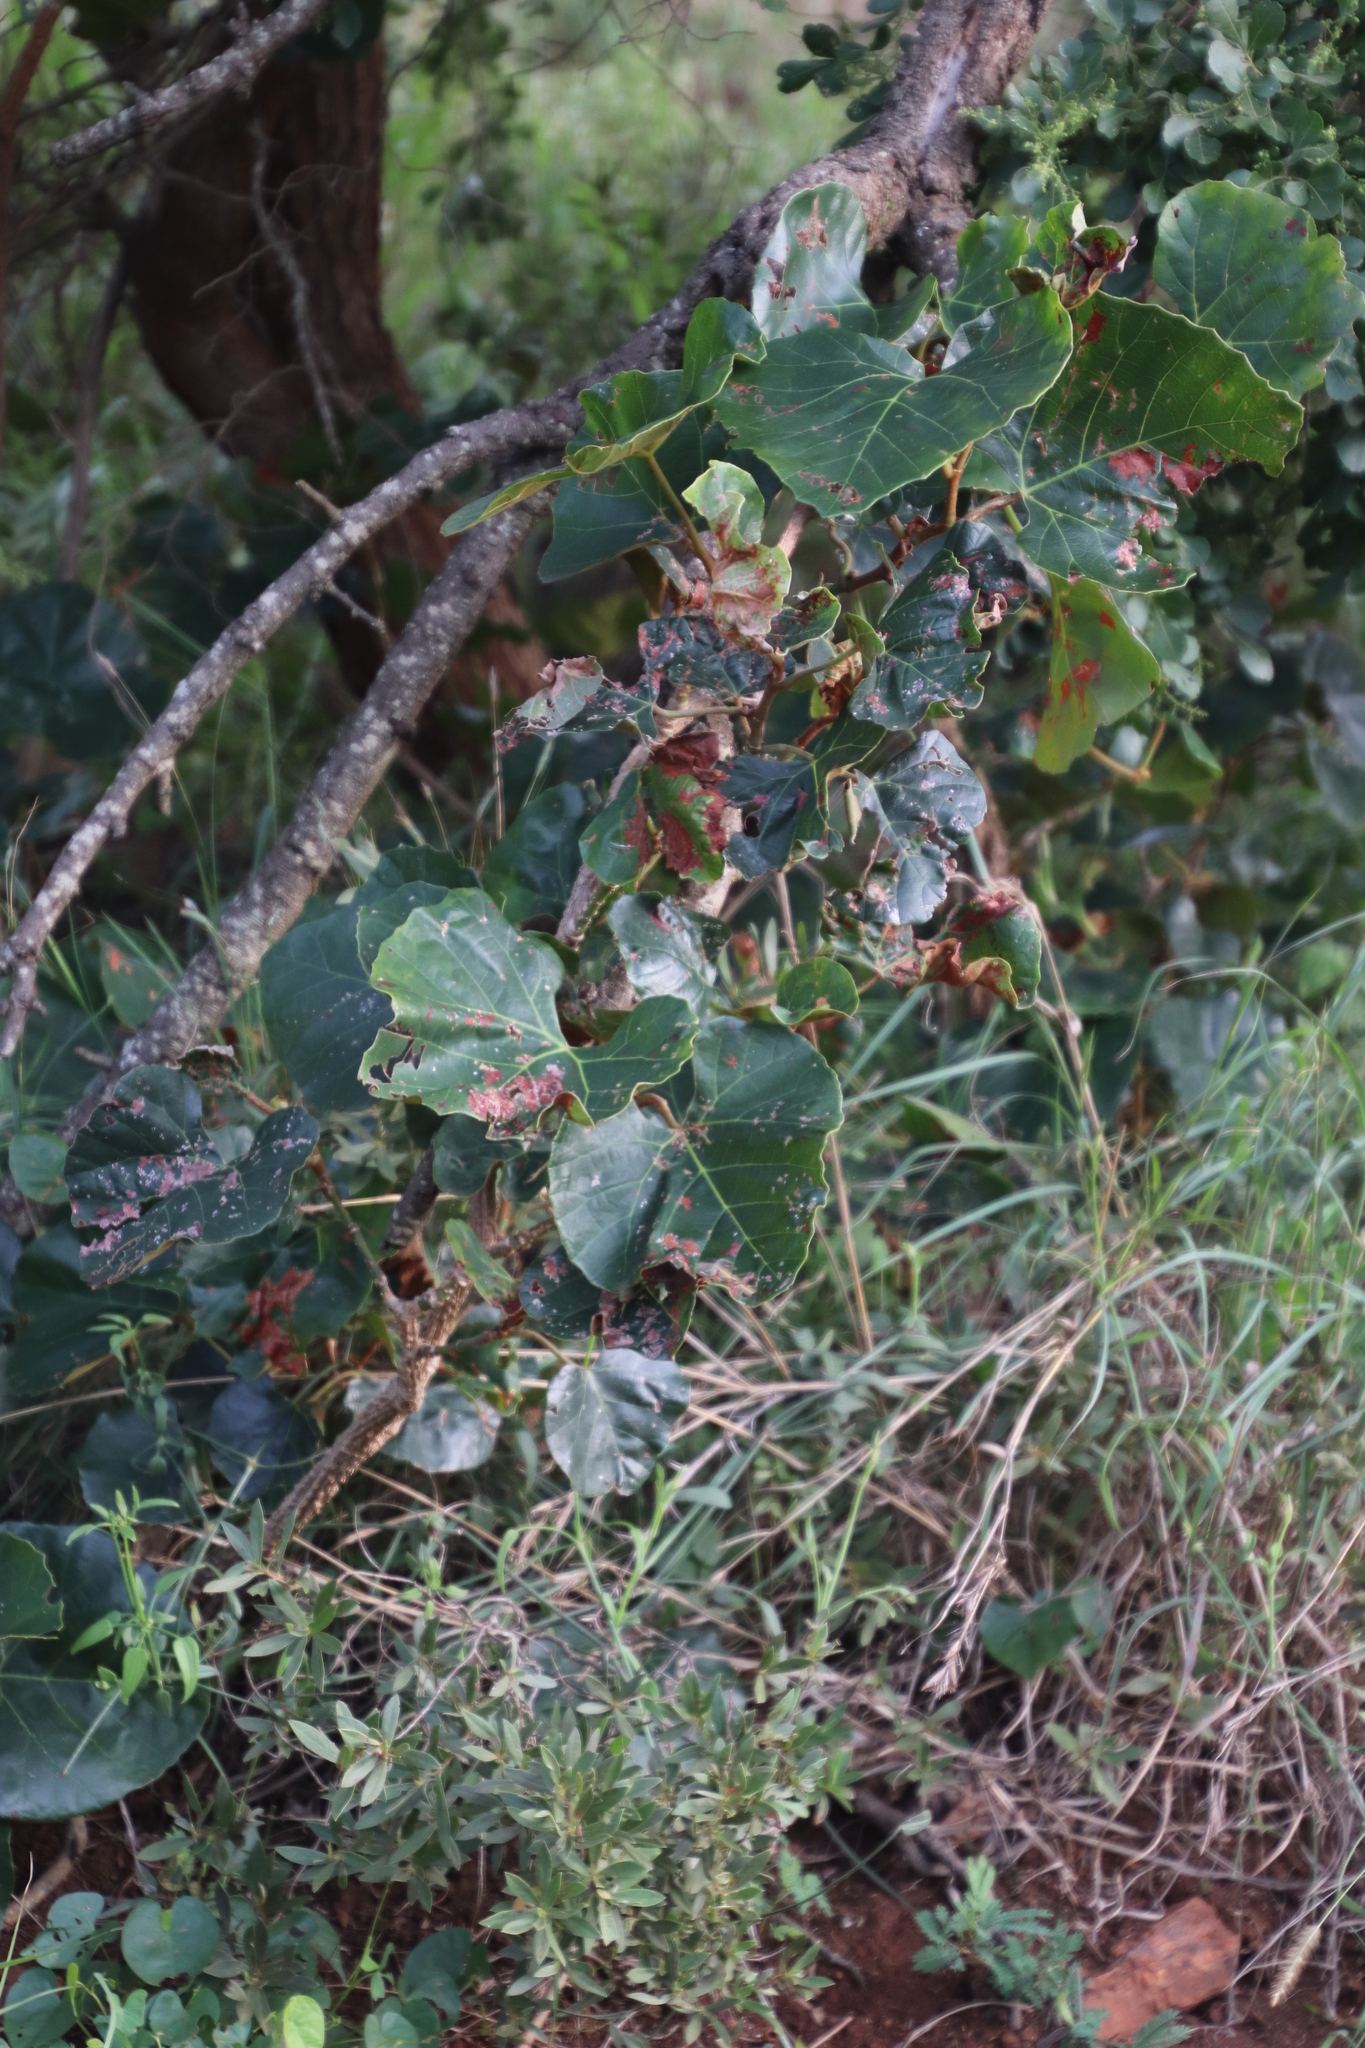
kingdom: Plantae
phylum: Tracheophyta
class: Magnoliopsida
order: Vitales
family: Vitaceae
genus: Rhoicissus
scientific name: Rhoicissus tomentosa
